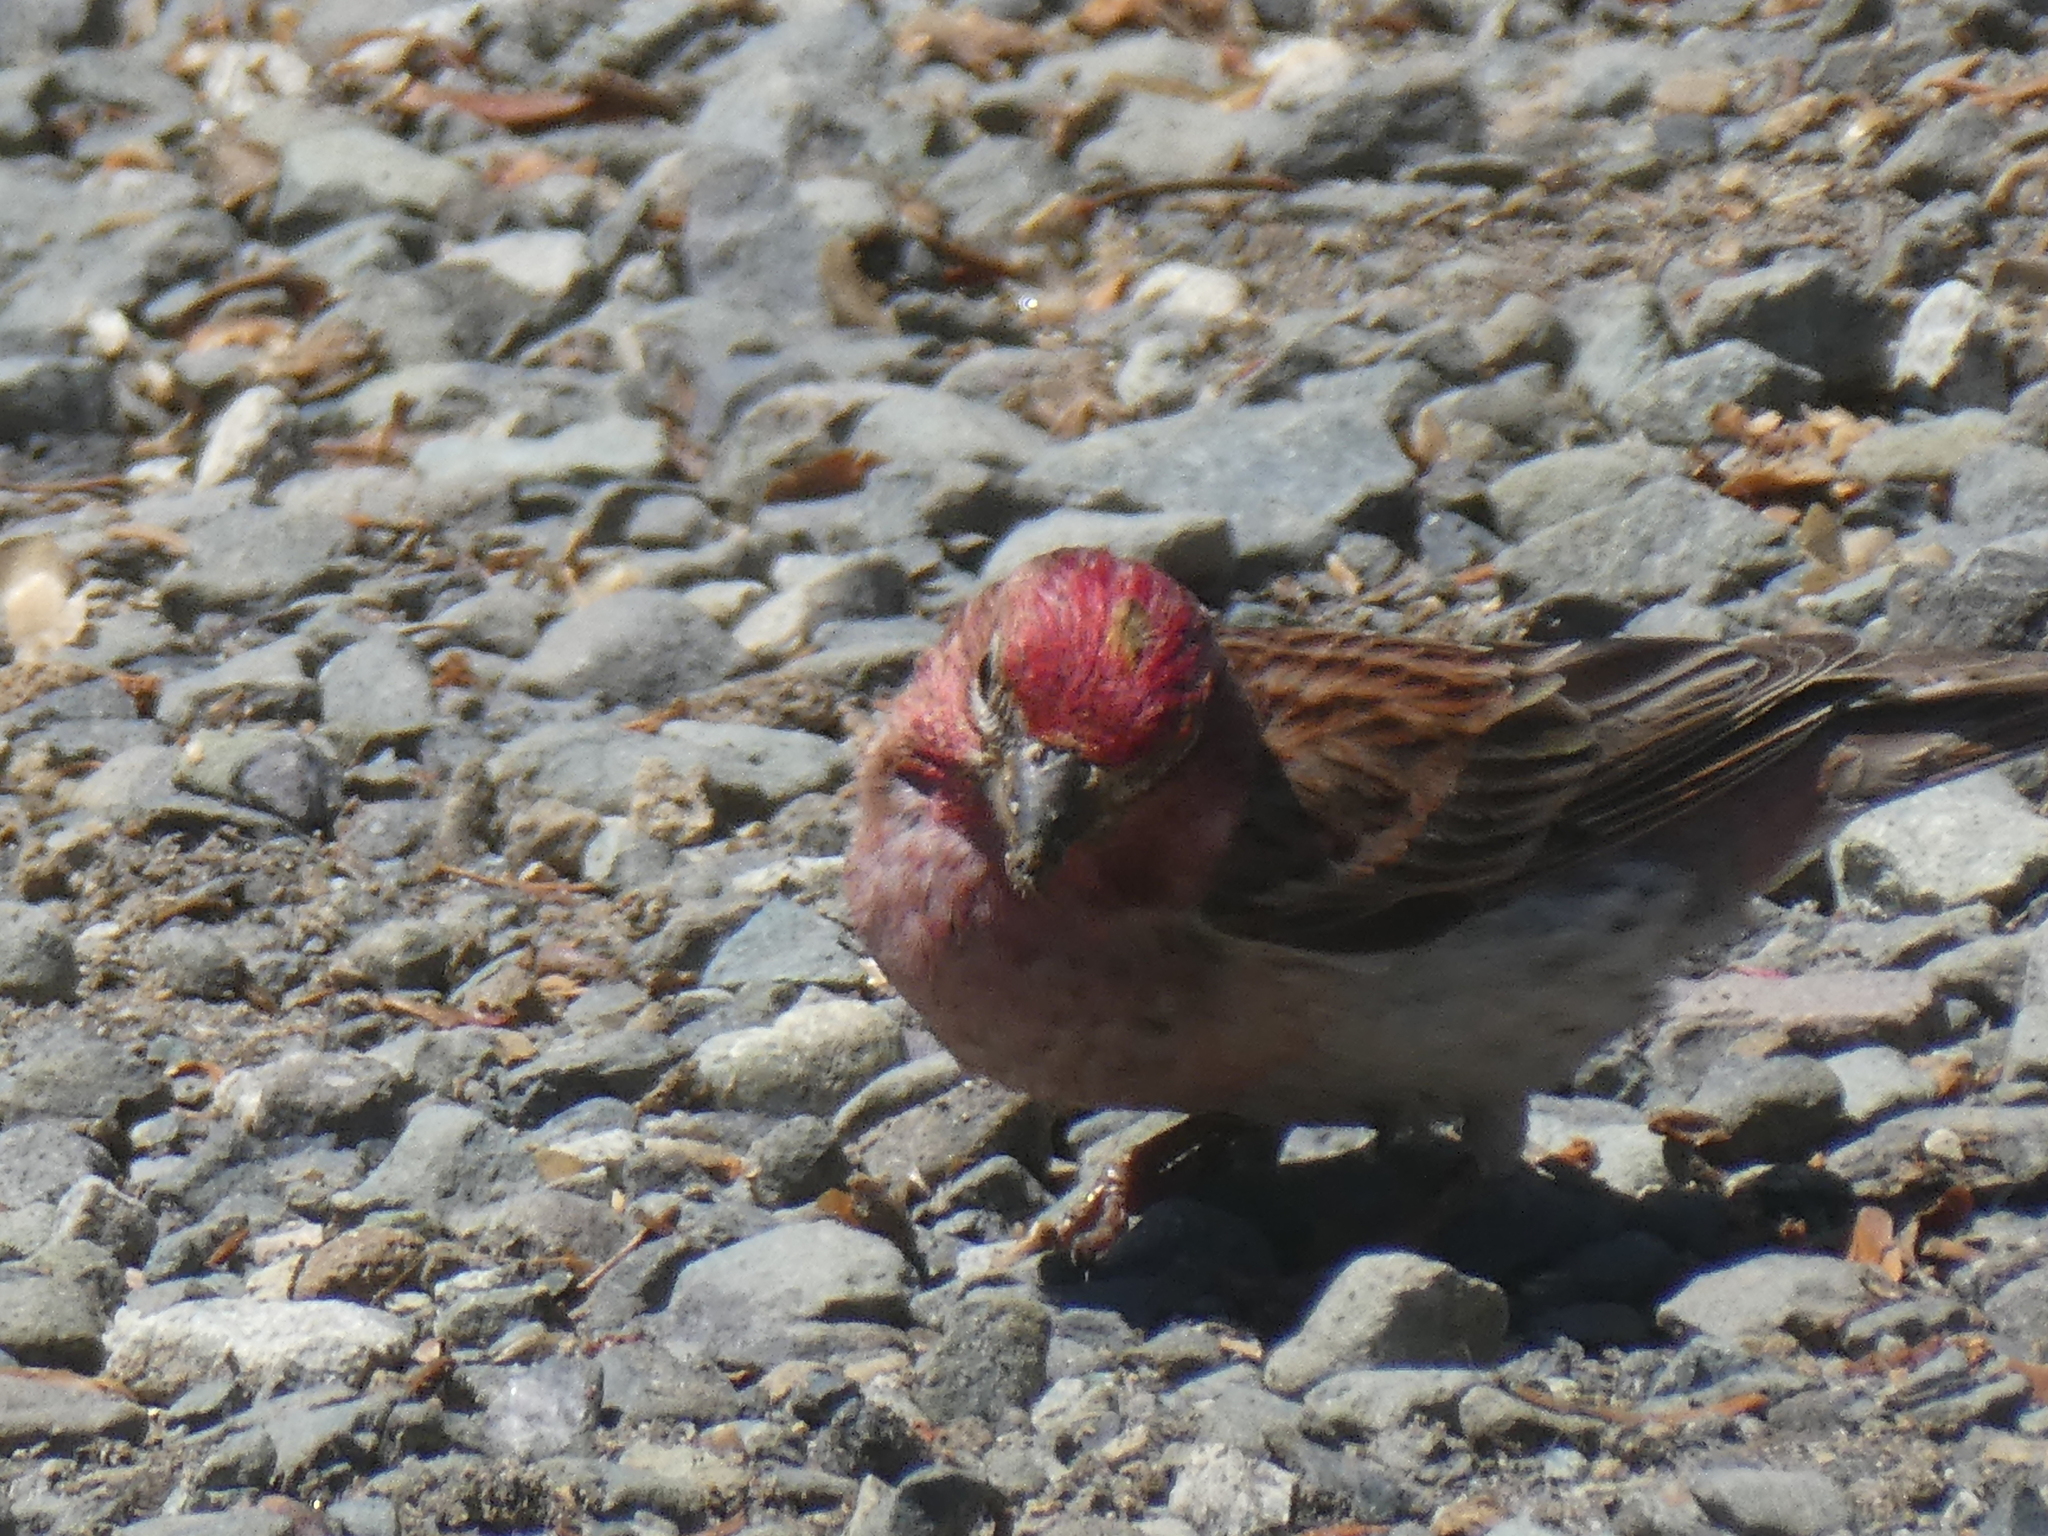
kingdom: Animalia
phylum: Chordata
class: Aves
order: Passeriformes
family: Fringillidae
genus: Haemorhous
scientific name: Haemorhous cassinii
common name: Cassin's finch
